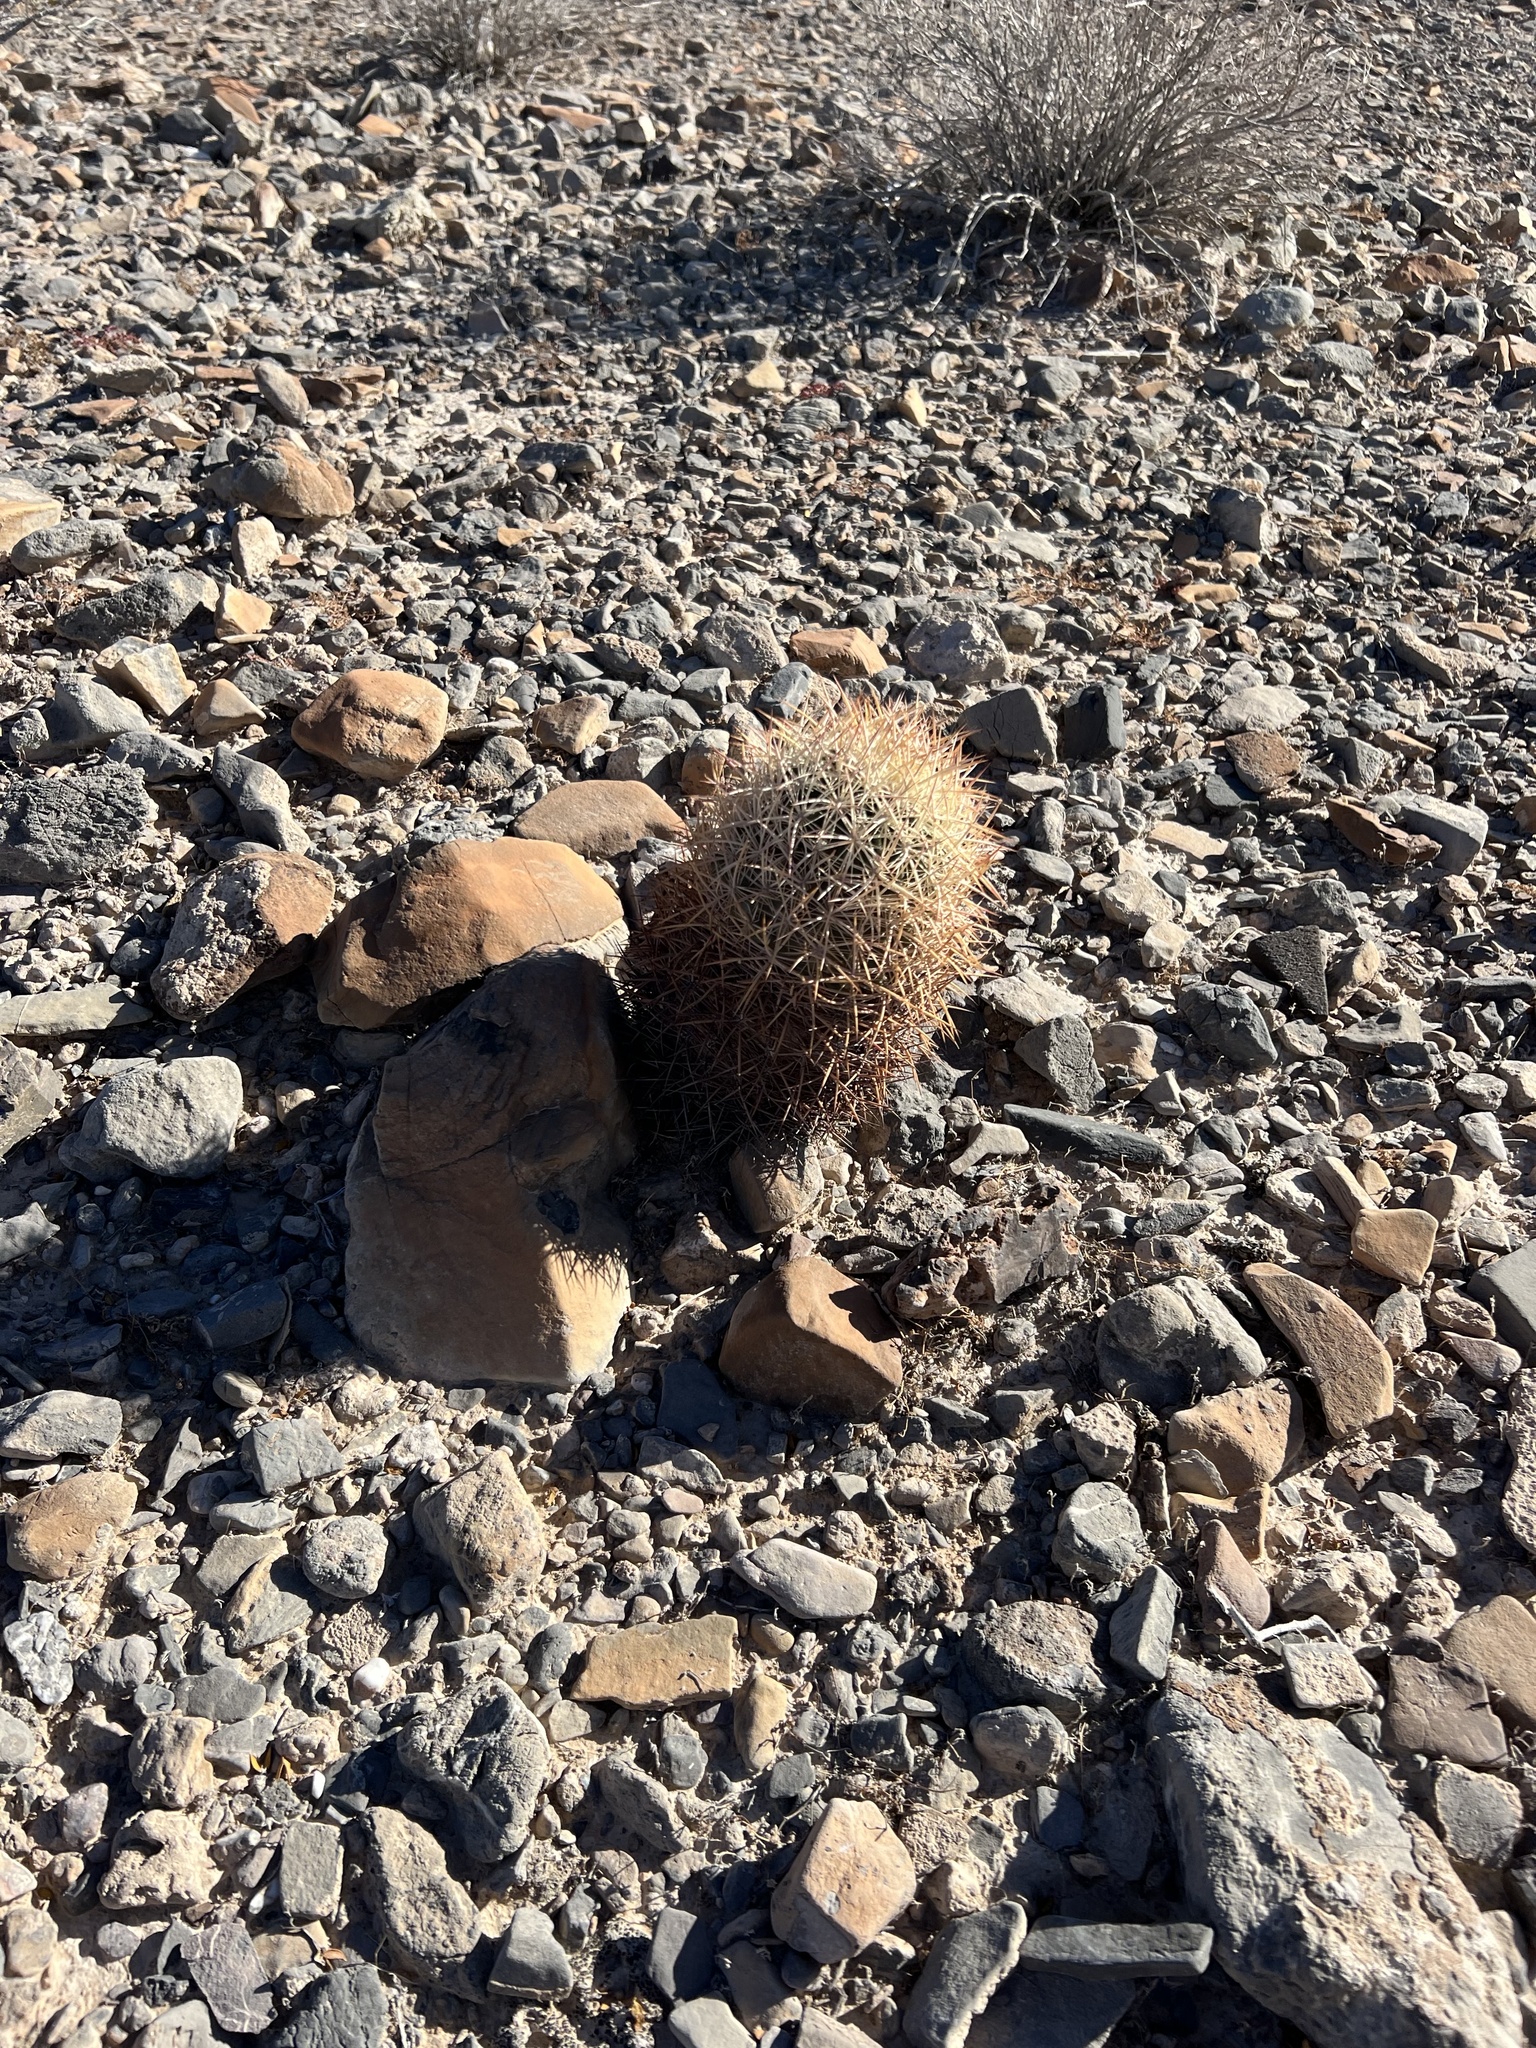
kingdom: Plantae
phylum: Tracheophyta
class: Magnoliopsida
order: Caryophyllales
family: Cactaceae
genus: Sclerocactus
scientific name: Sclerocactus johnsonii
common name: Eight-spine fishhook cactus
